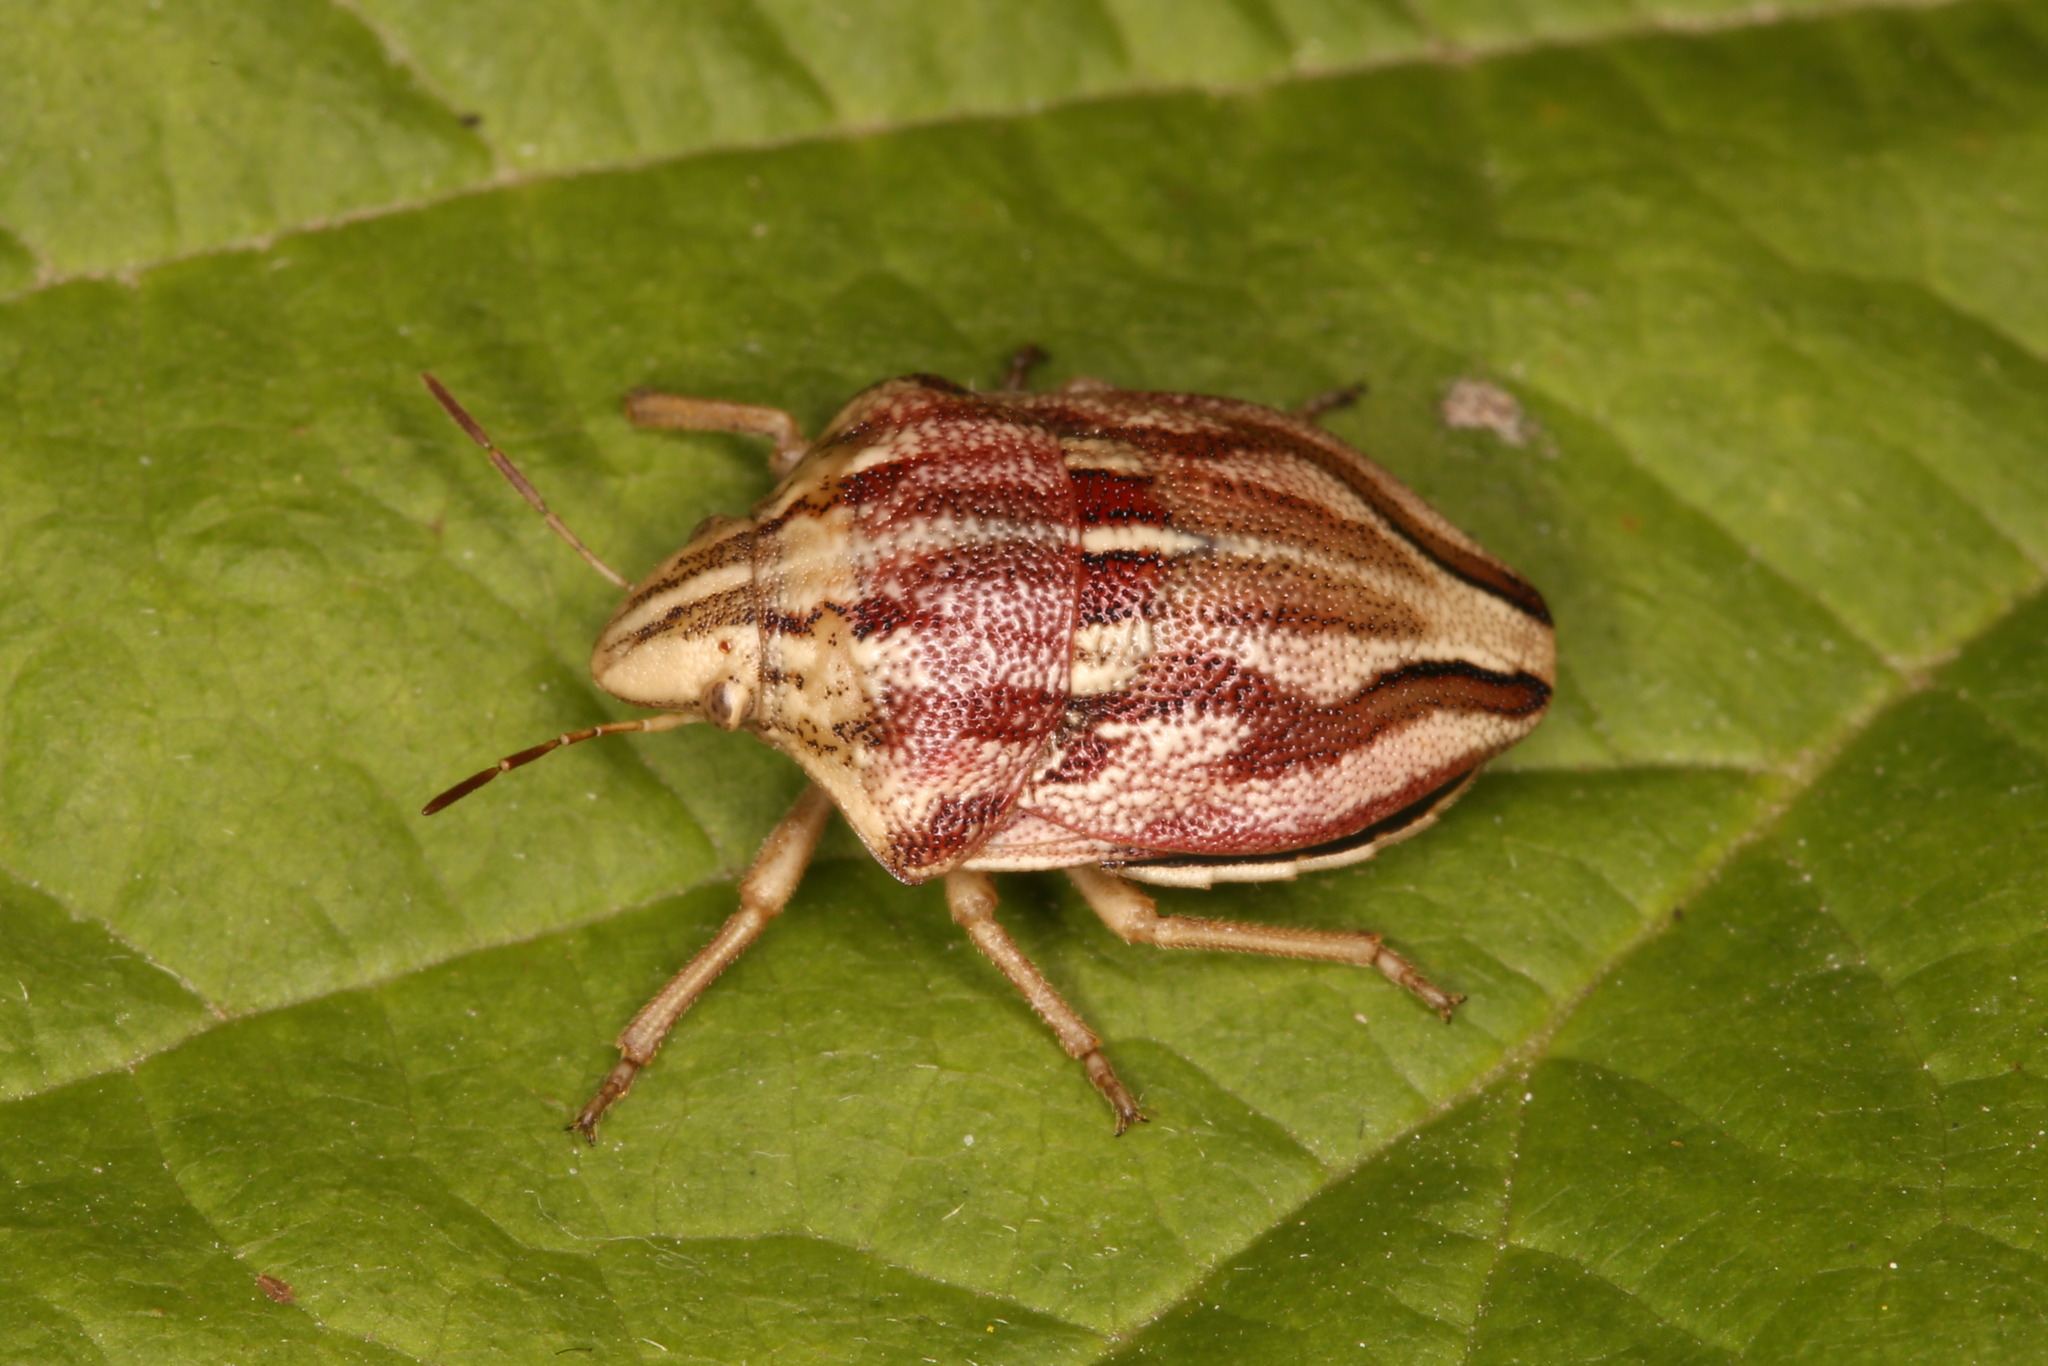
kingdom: Animalia
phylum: Arthropoda
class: Insecta
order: Hemiptera
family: Scutelleridae
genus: Odontotarsus
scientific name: Odontotarsus purpureolineatus
